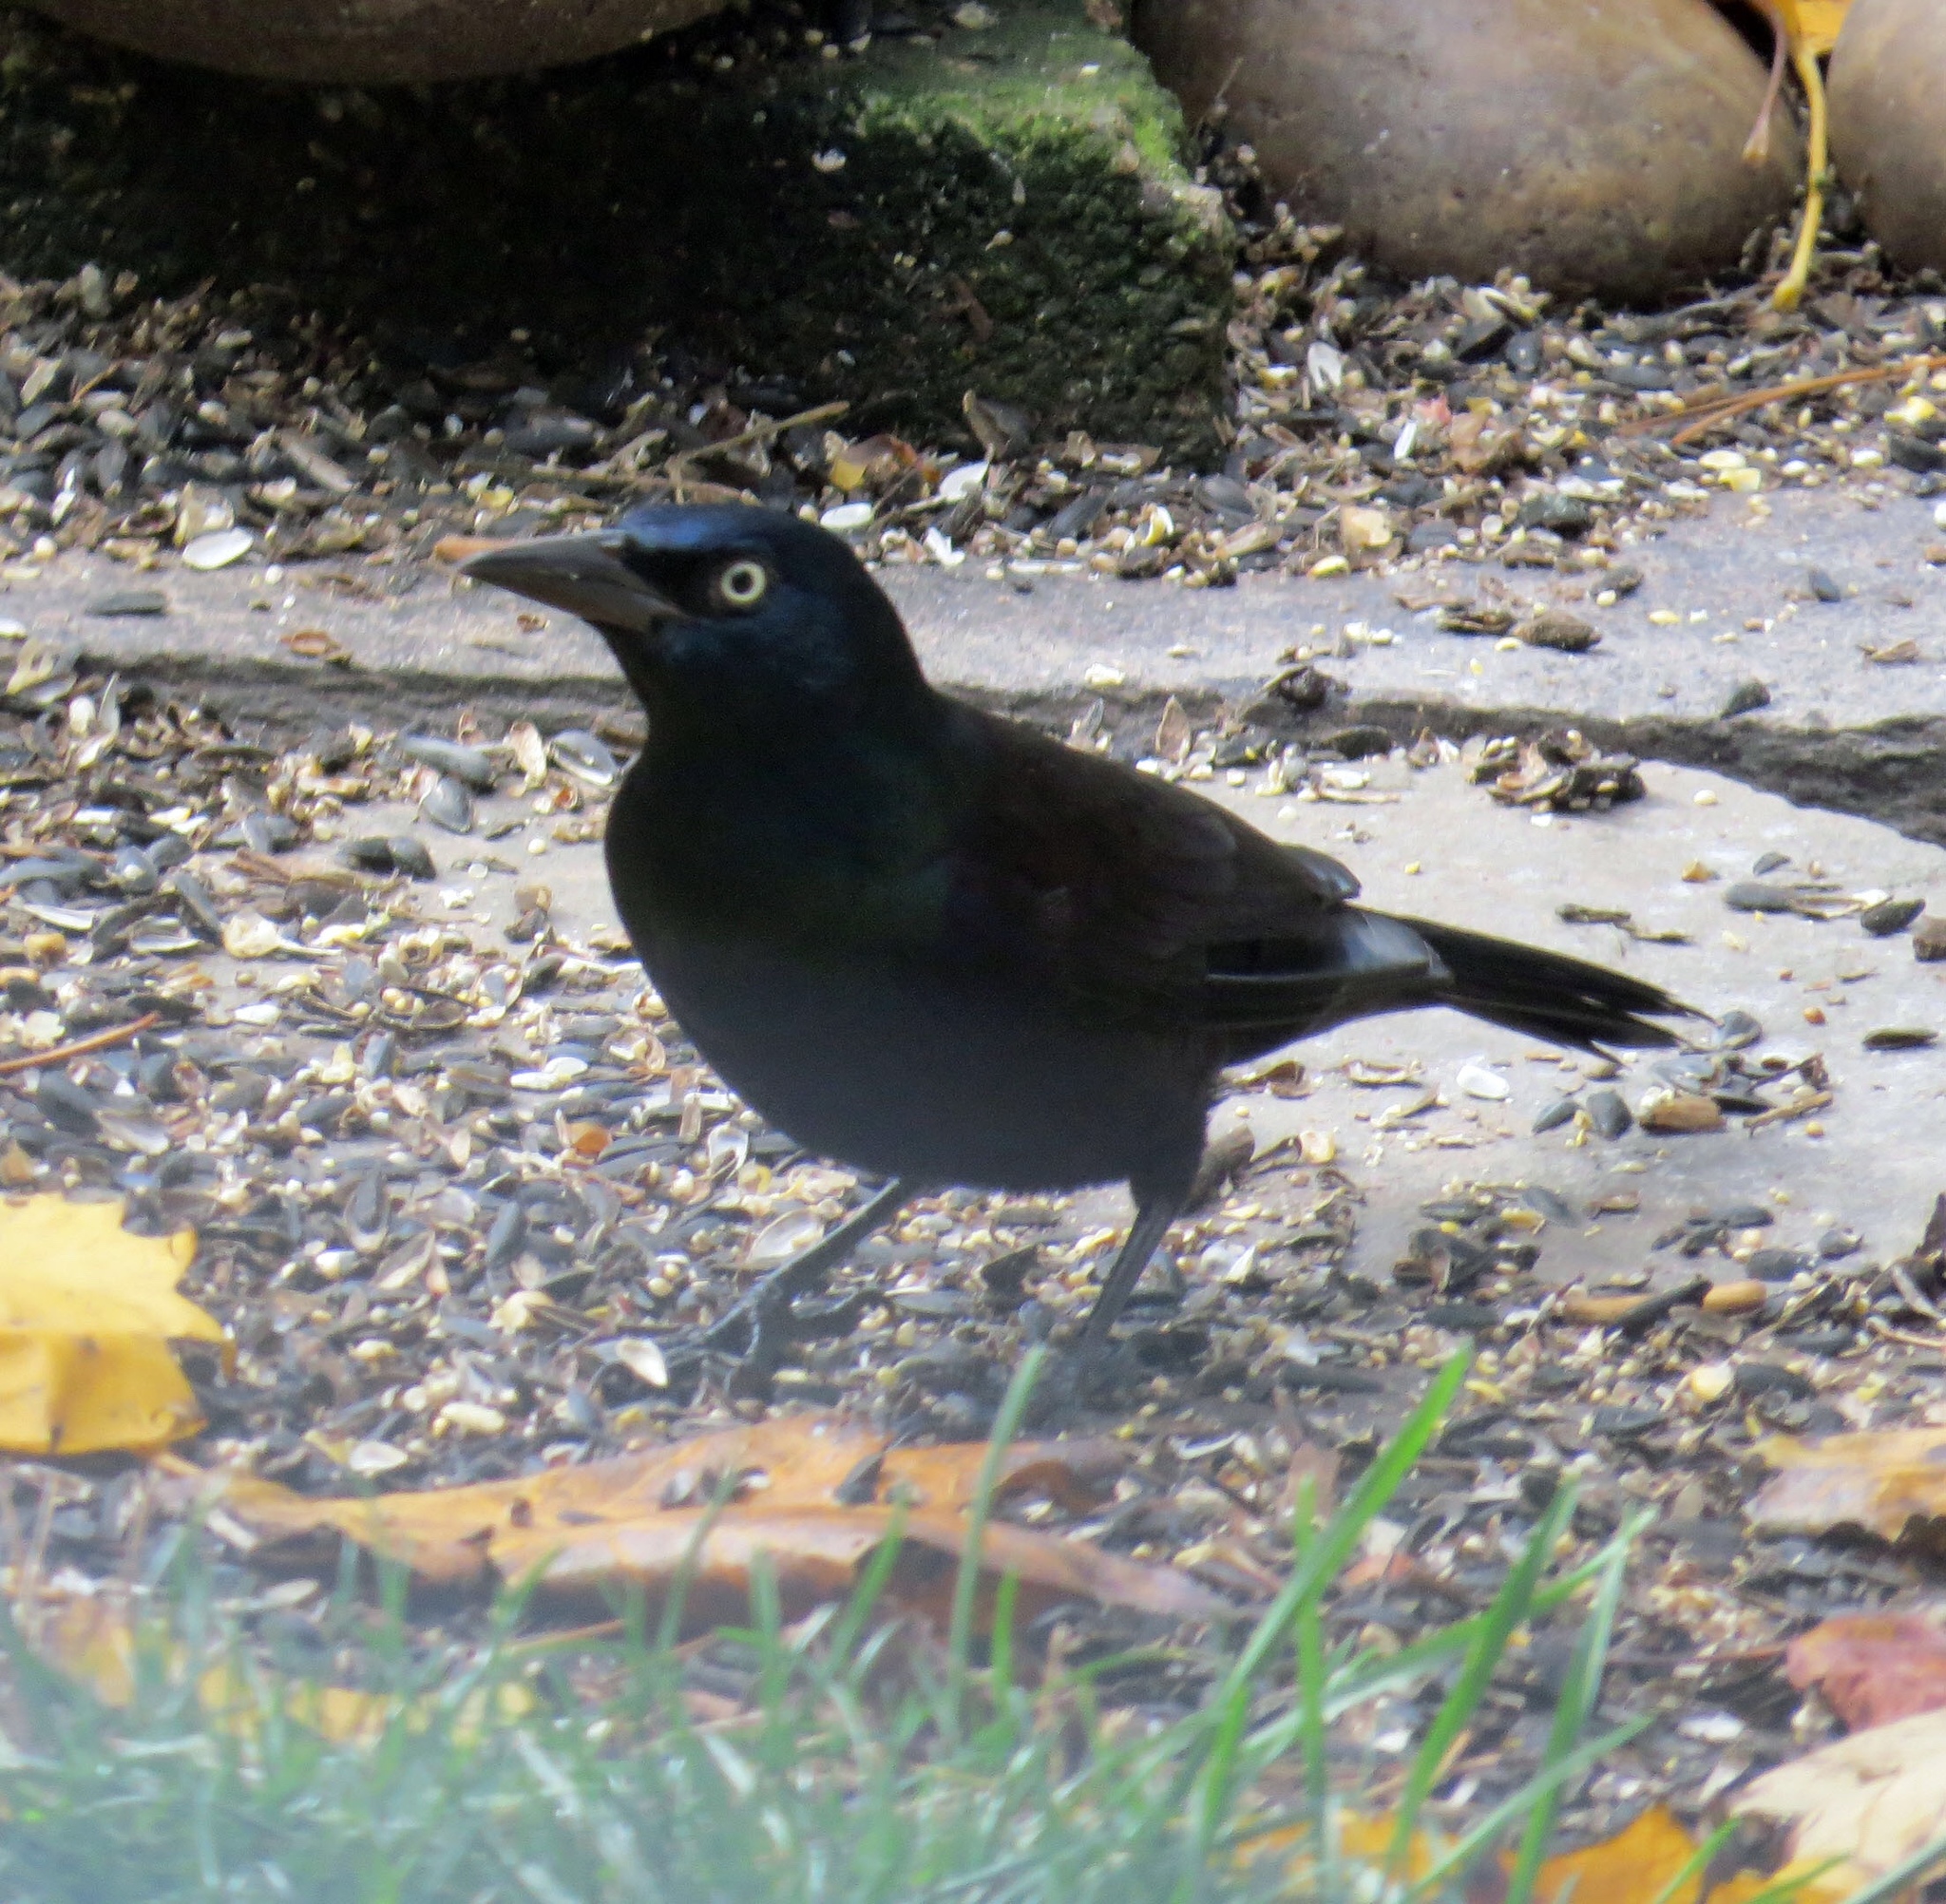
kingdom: Animalia
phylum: Chordata
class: Aves
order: Passeriformes
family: Icteridae
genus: Quiscalus
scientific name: Quiscalus quiscula
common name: Common grackle
